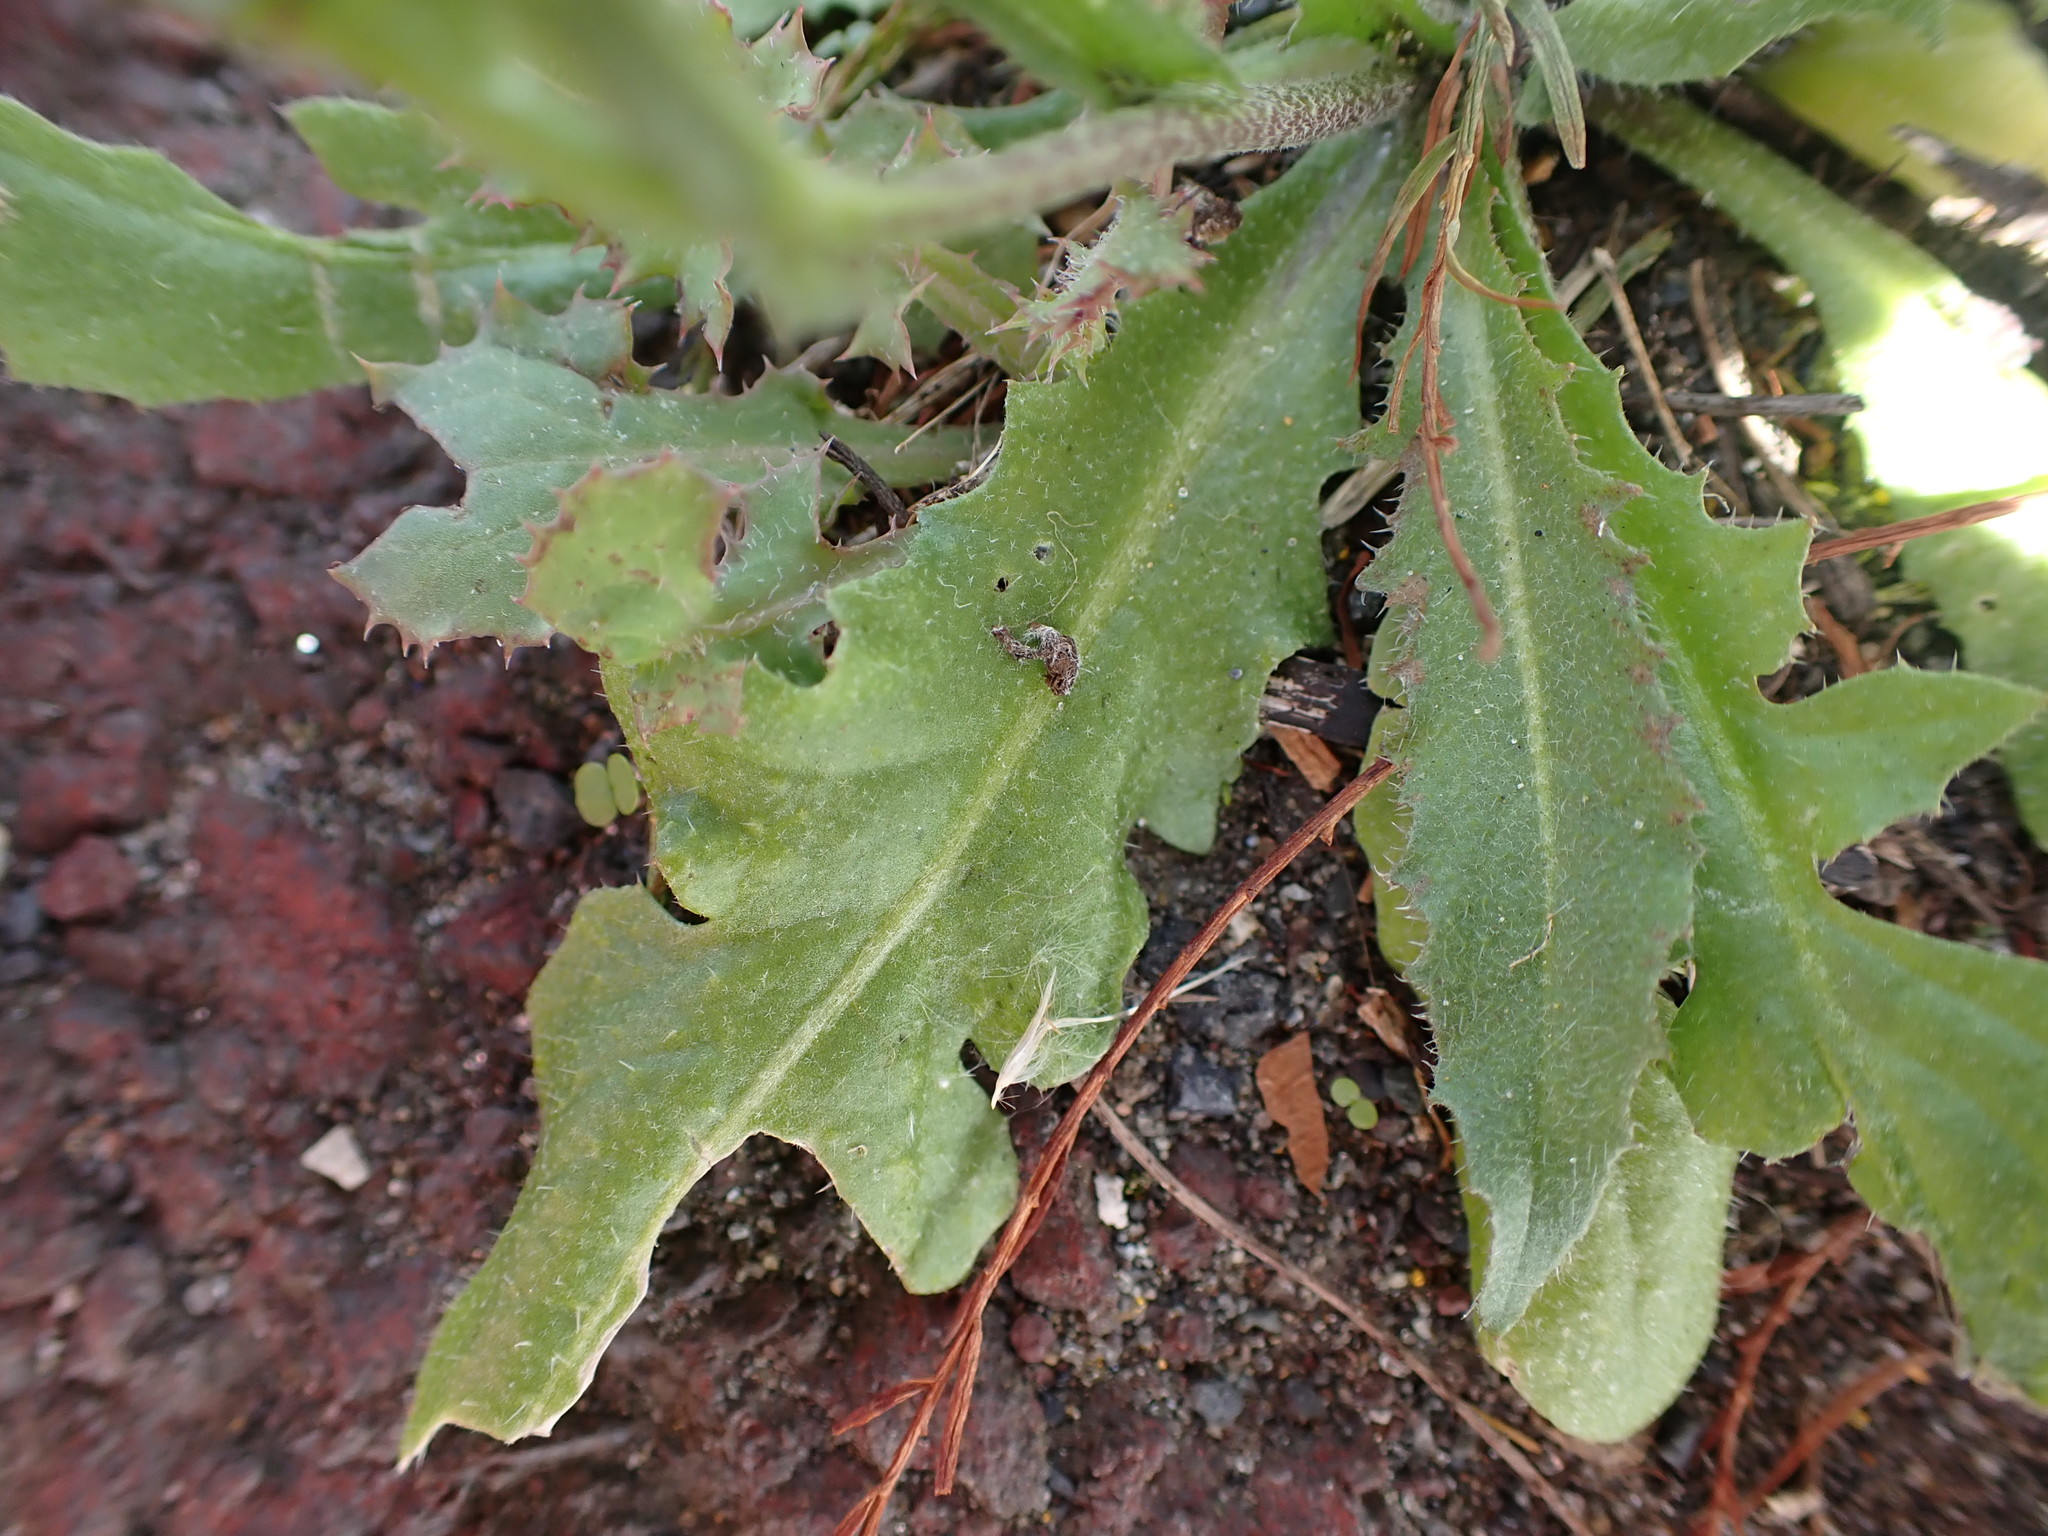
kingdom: Plantae
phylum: Tracheophyta
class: Magnoliopsida
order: Brassicales
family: Brassicaceae
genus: Capsella
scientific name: Capsella bursa-pastoris
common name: Shepherd's purse
